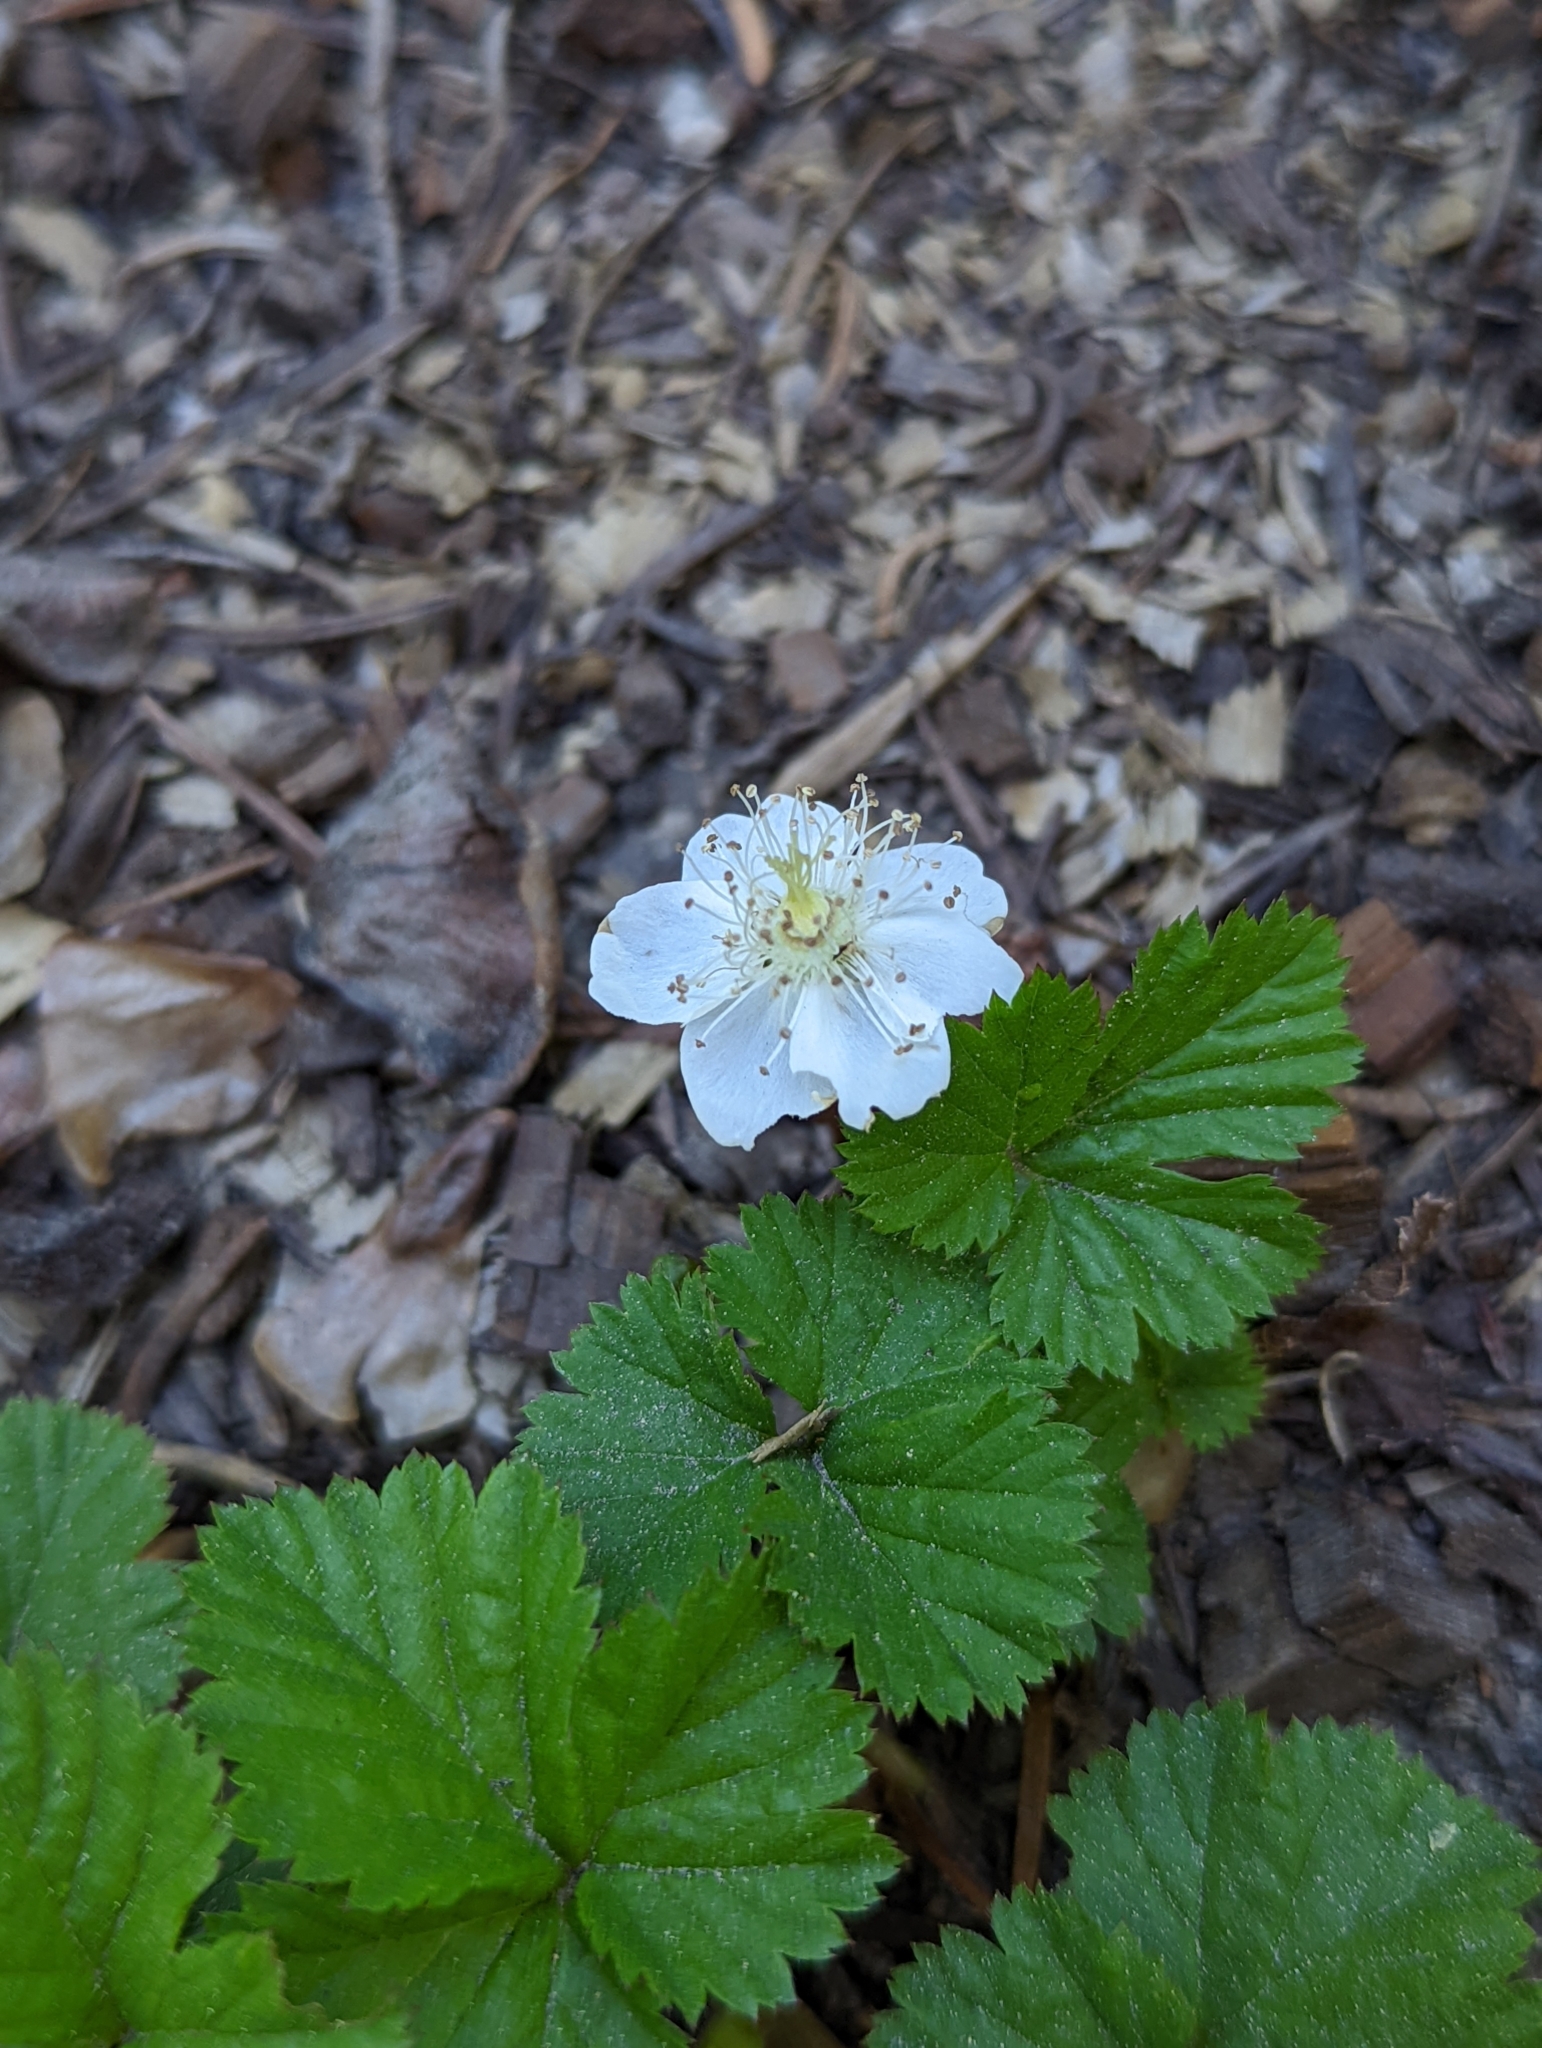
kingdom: Plantae
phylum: Tracheophyta
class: Magnoliopsida
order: Rosales
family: Rosaceae
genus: Rubus
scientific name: Rubus lasiococcus
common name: Dwarf bramble
